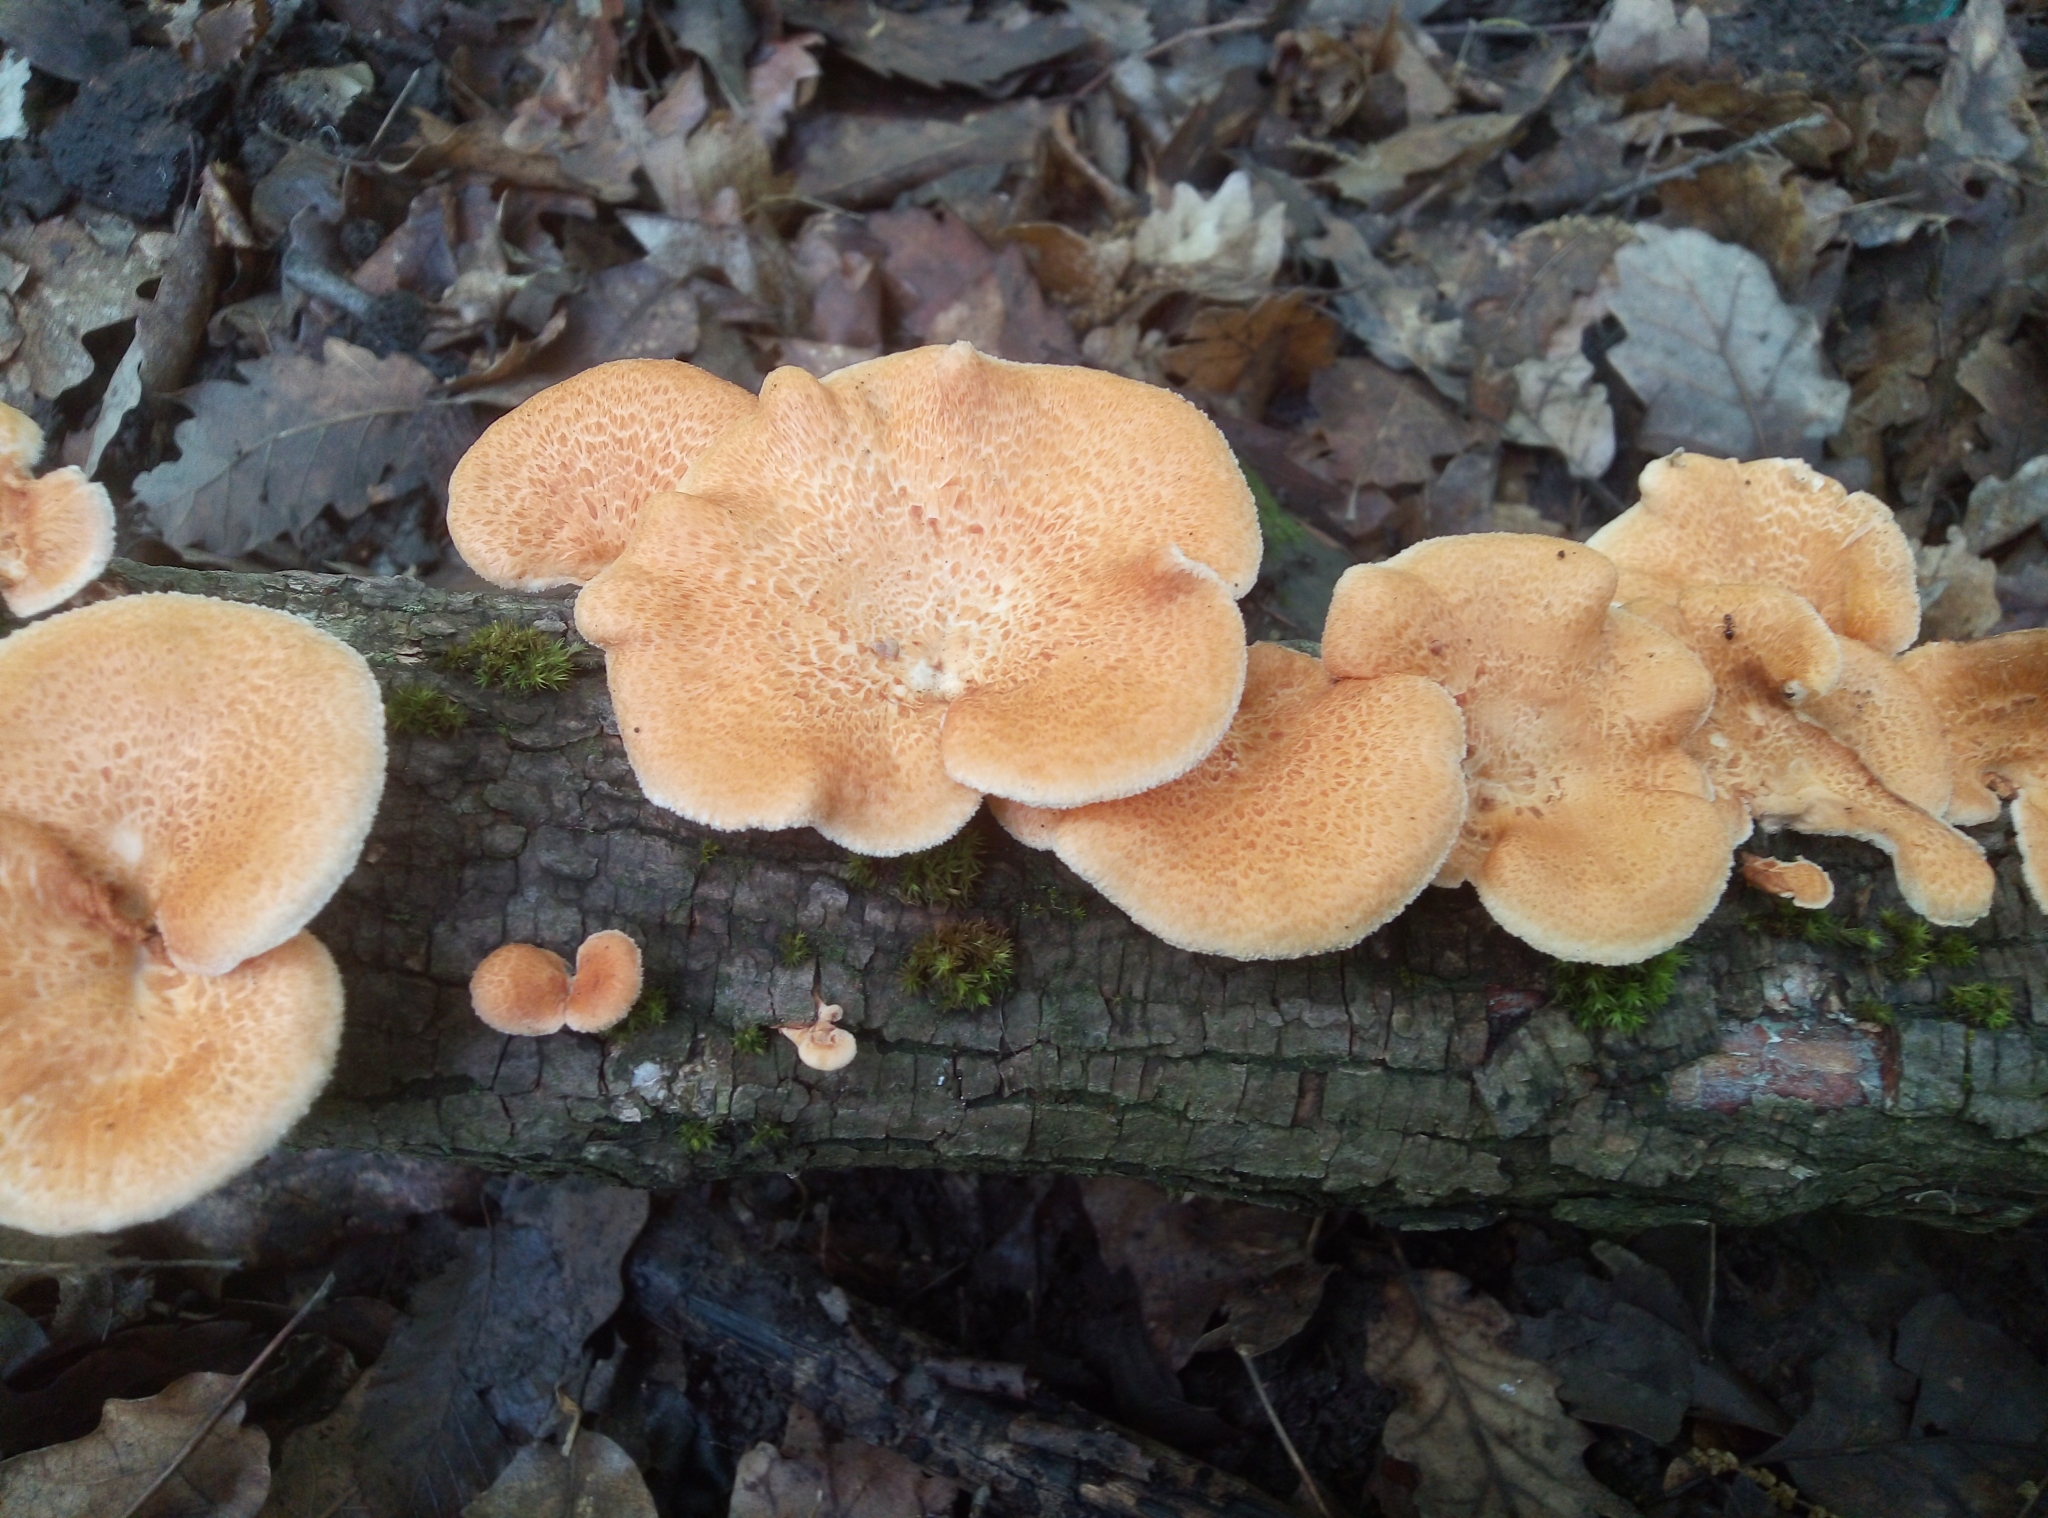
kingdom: Fungi
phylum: Basidiomycota
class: Agaricomycetes
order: Polyporales
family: Polyporaceae
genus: Neofavolus
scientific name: Neofavolus alveolaris
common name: Hexagonal-pored polypore
